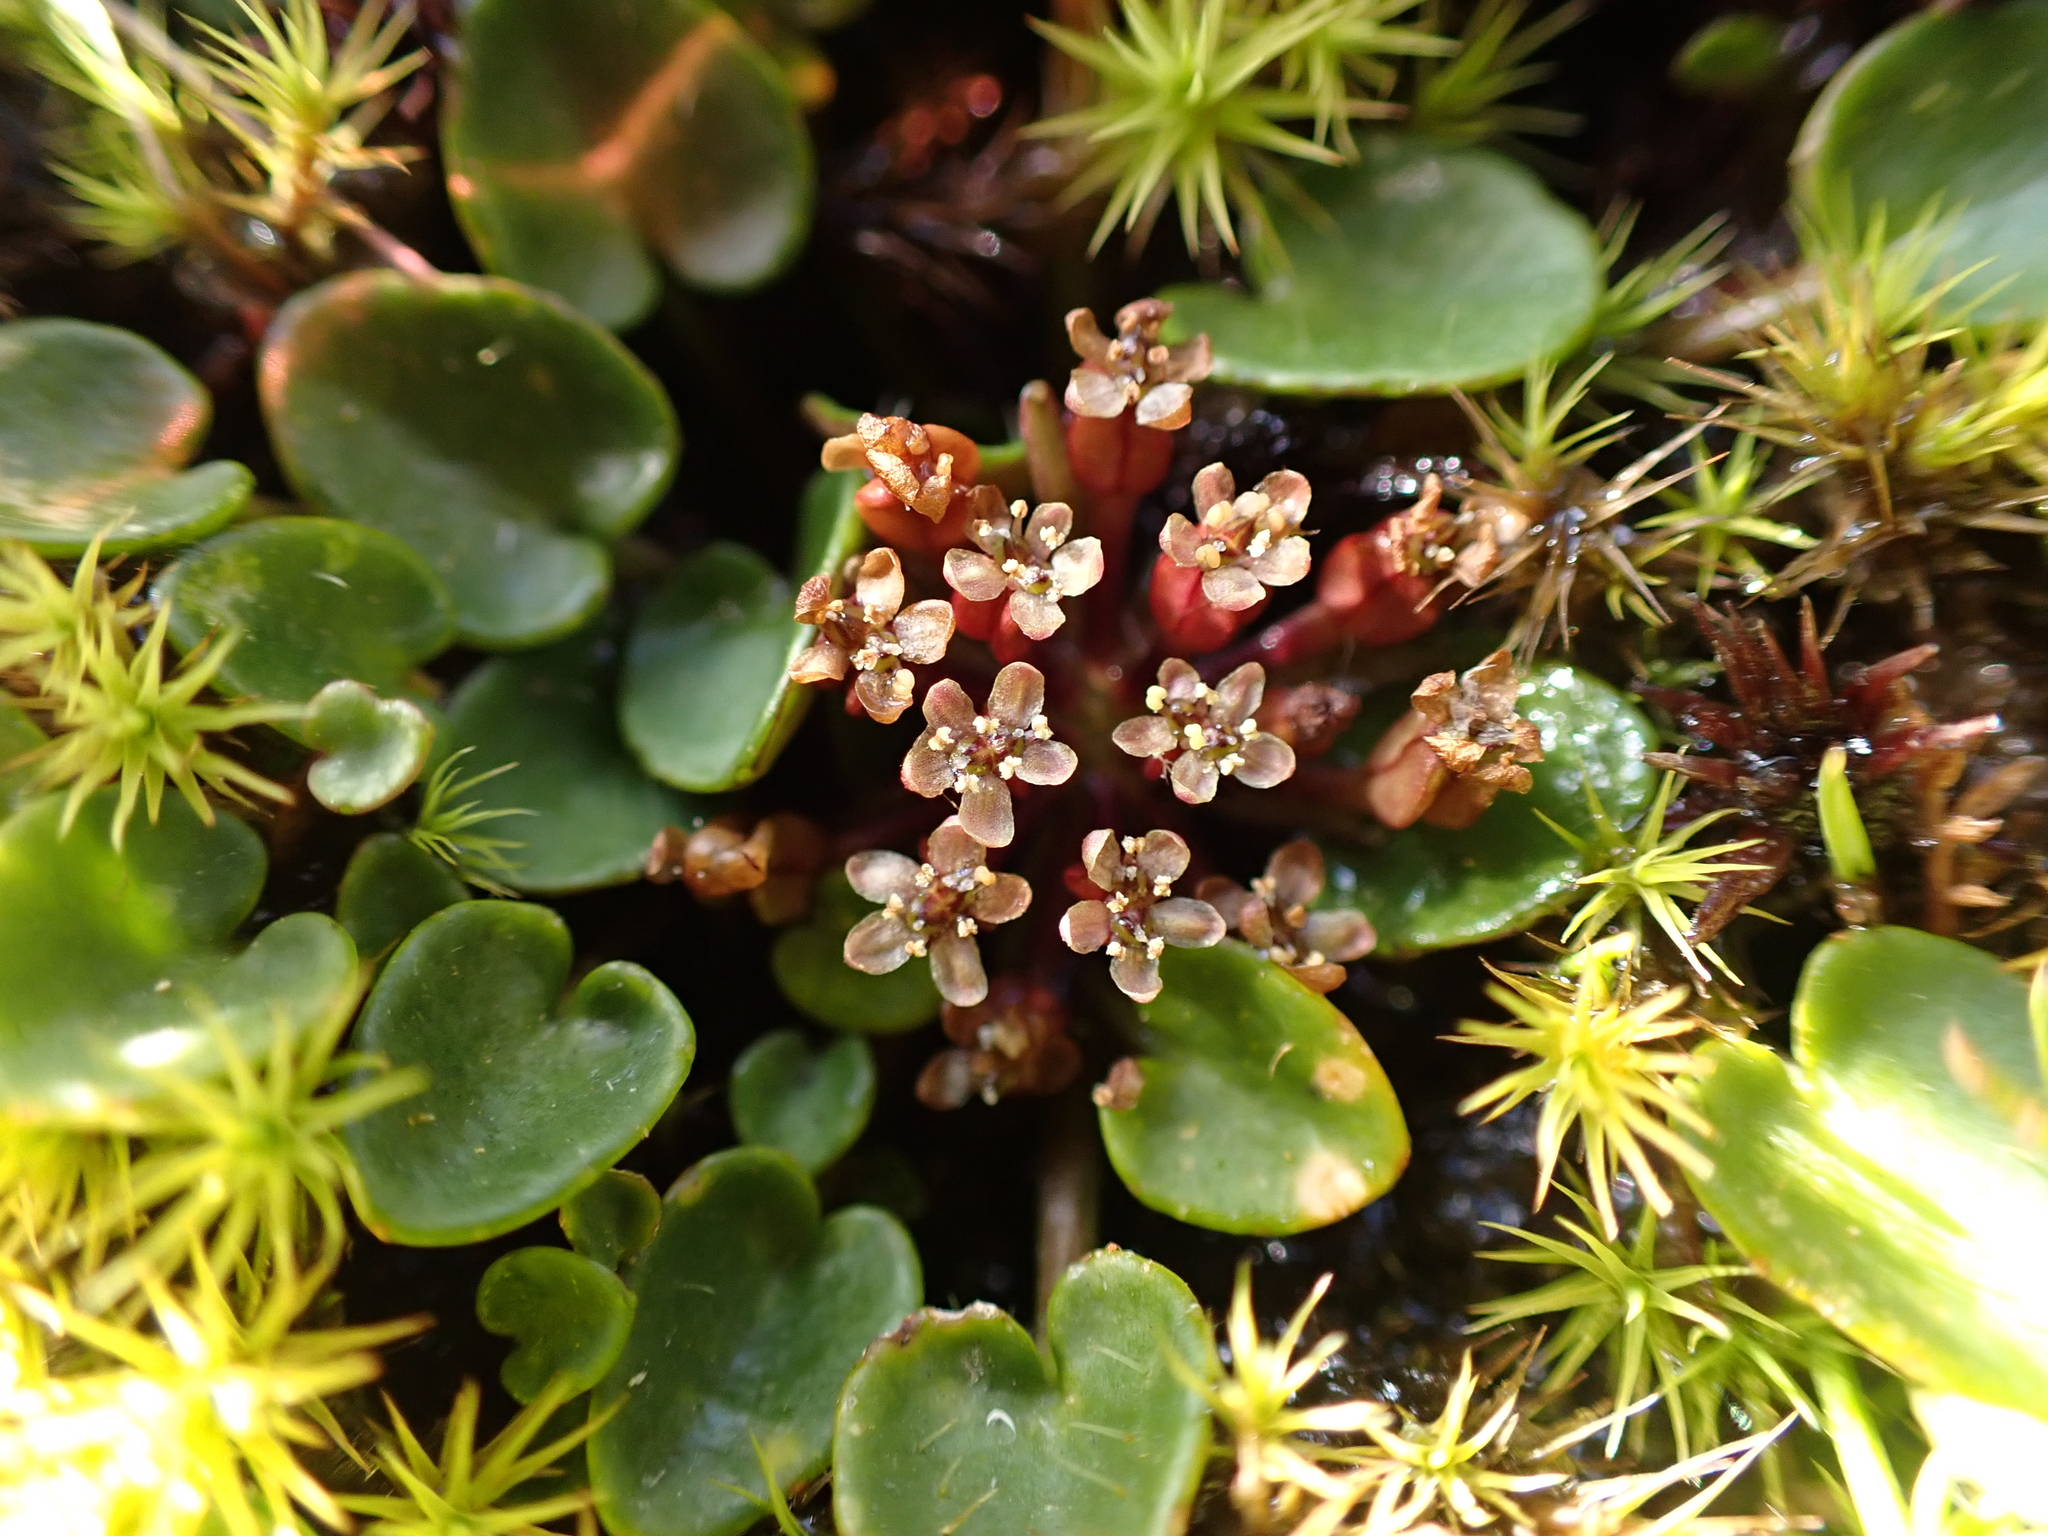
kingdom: Plantae
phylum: Tracheophyta
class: Magnoliopsida
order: Apiales
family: Apiaceae
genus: Diplaspis
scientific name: Diplaspis nivis
